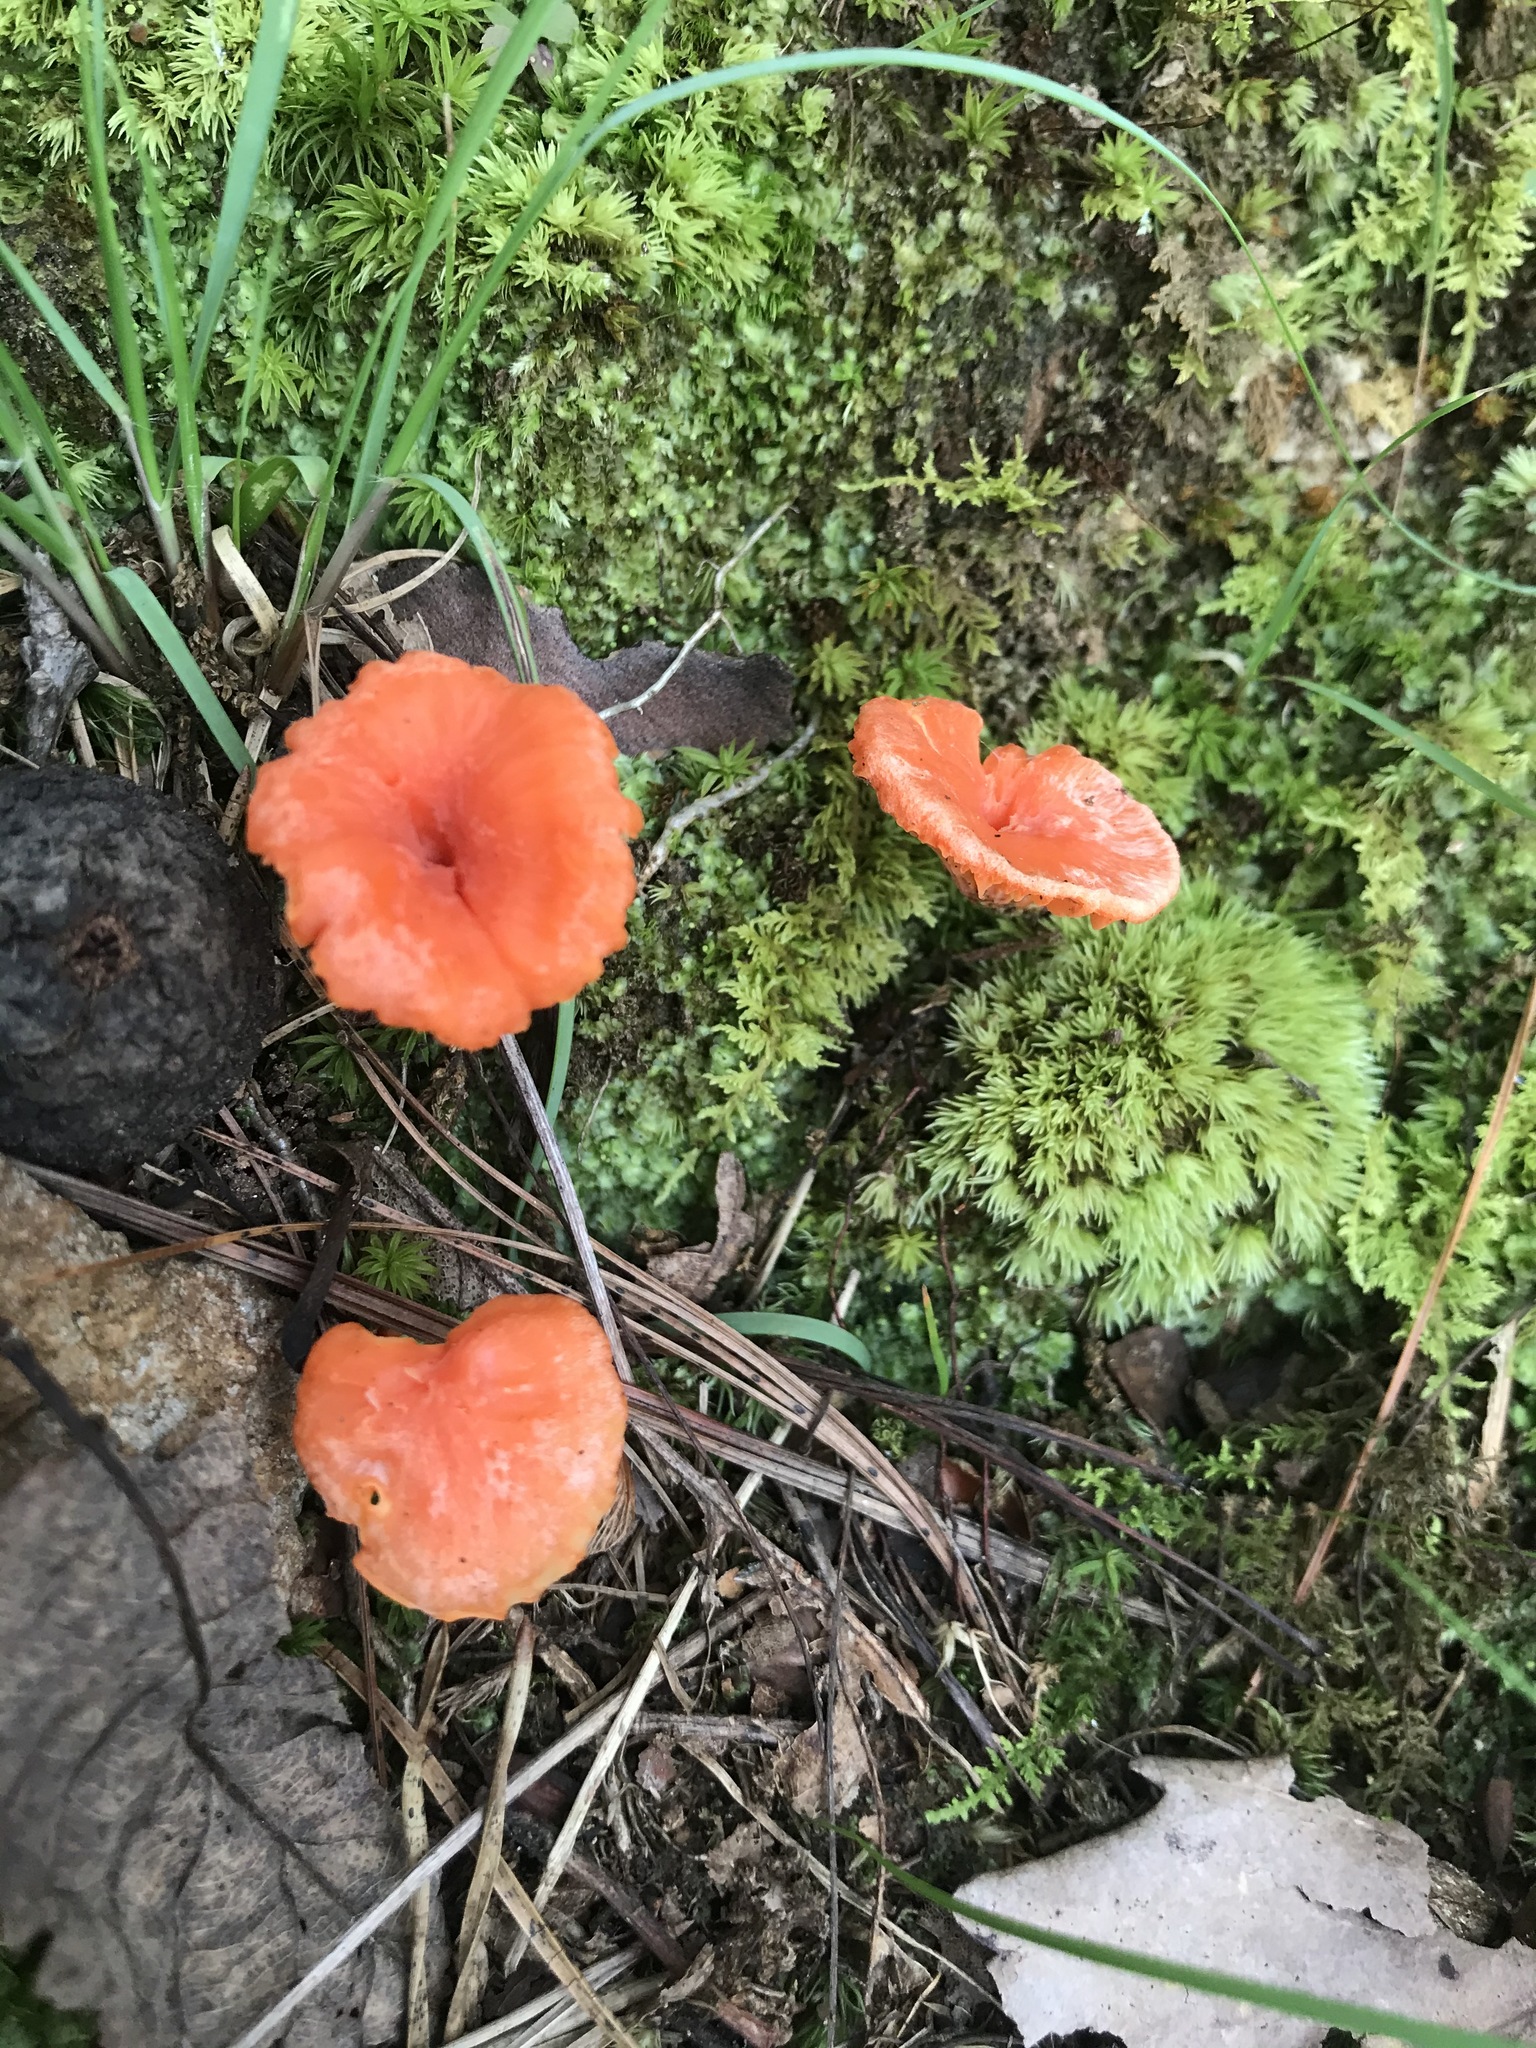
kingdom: Fungi
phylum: Basidiomycota
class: Agaricomycetes
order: Cantharellales
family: Hydnaceae
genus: Cantharellus
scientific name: Cantharellus cinnabarinus
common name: Cinnabar chanterelle
